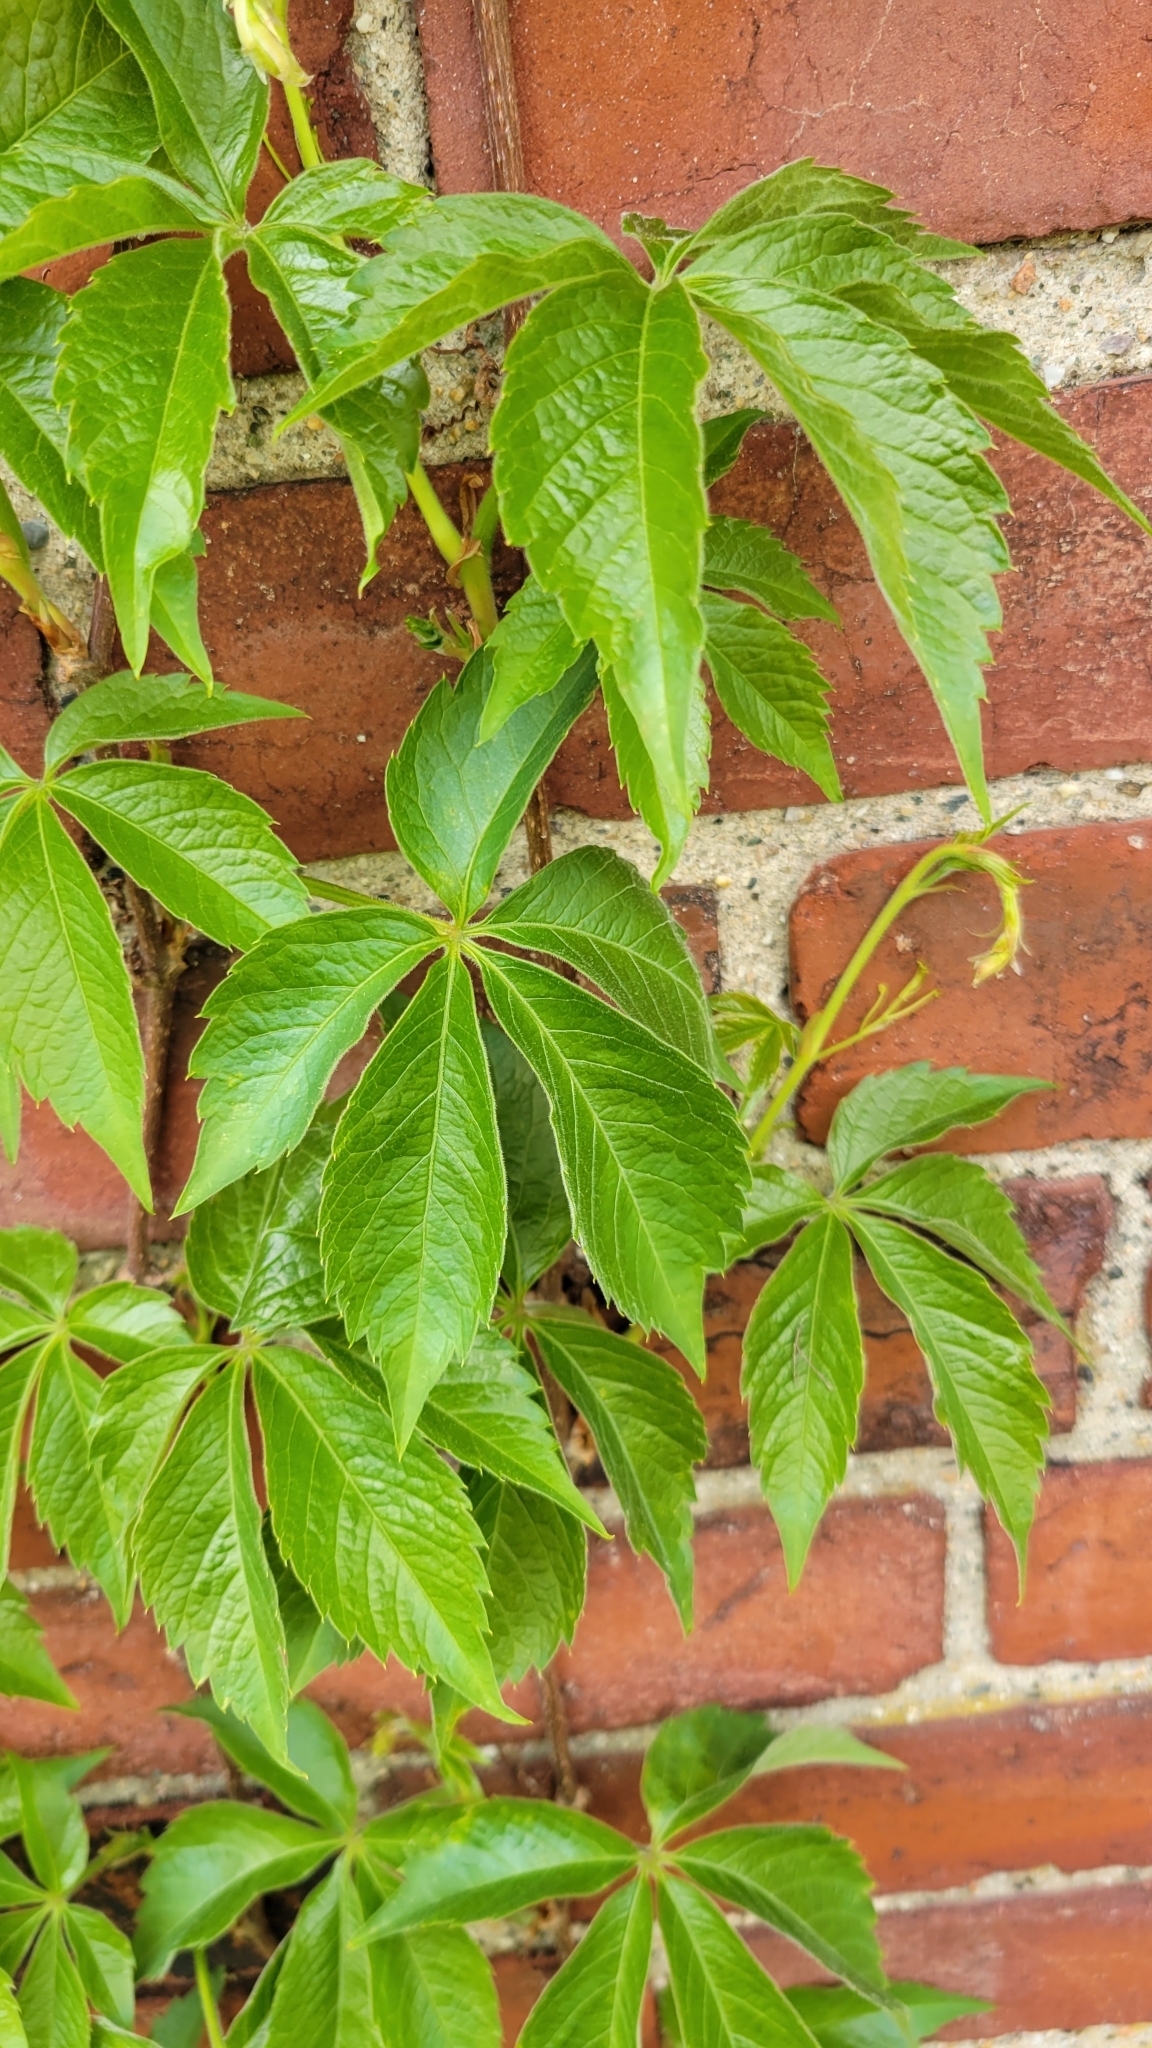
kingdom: Plantae
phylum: Tracheophyta
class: Magnoliopsida
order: Vitales
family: Vitaceae
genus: Parthenocissus
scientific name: Parthenocissus quinquefolia
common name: Virginia-creeper
